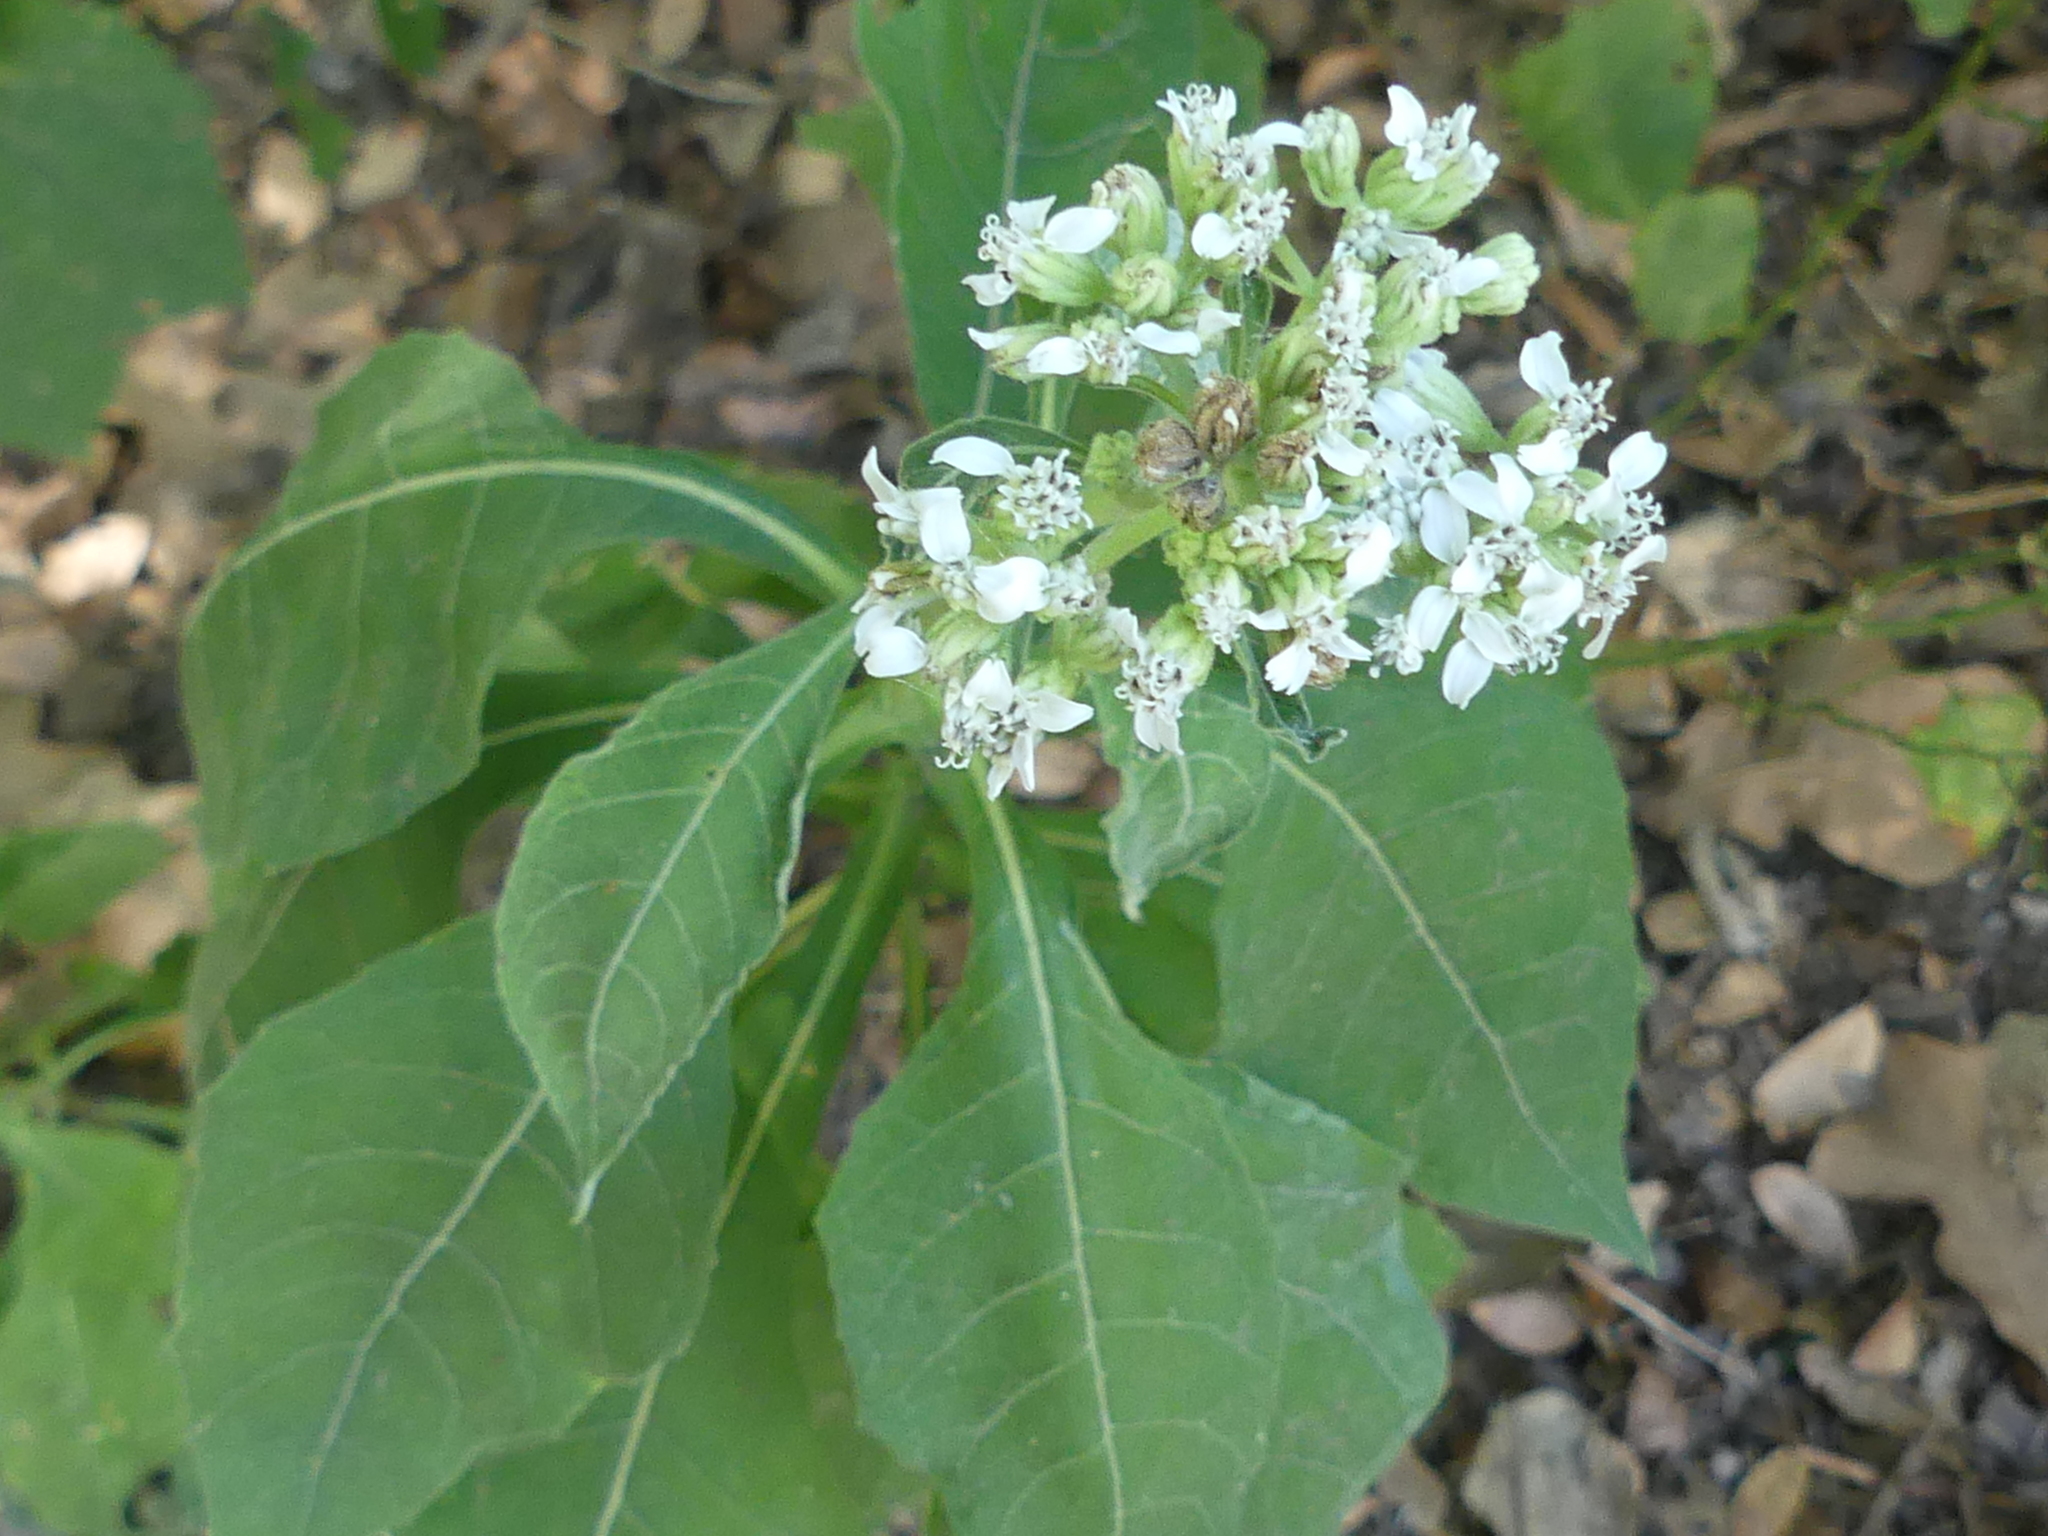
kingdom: Plantae
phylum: Tracheophyta
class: Magnoliopsida
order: Asterales
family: Asteraceae
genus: Verbesina
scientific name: Verbesina virginica
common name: Frostweed
